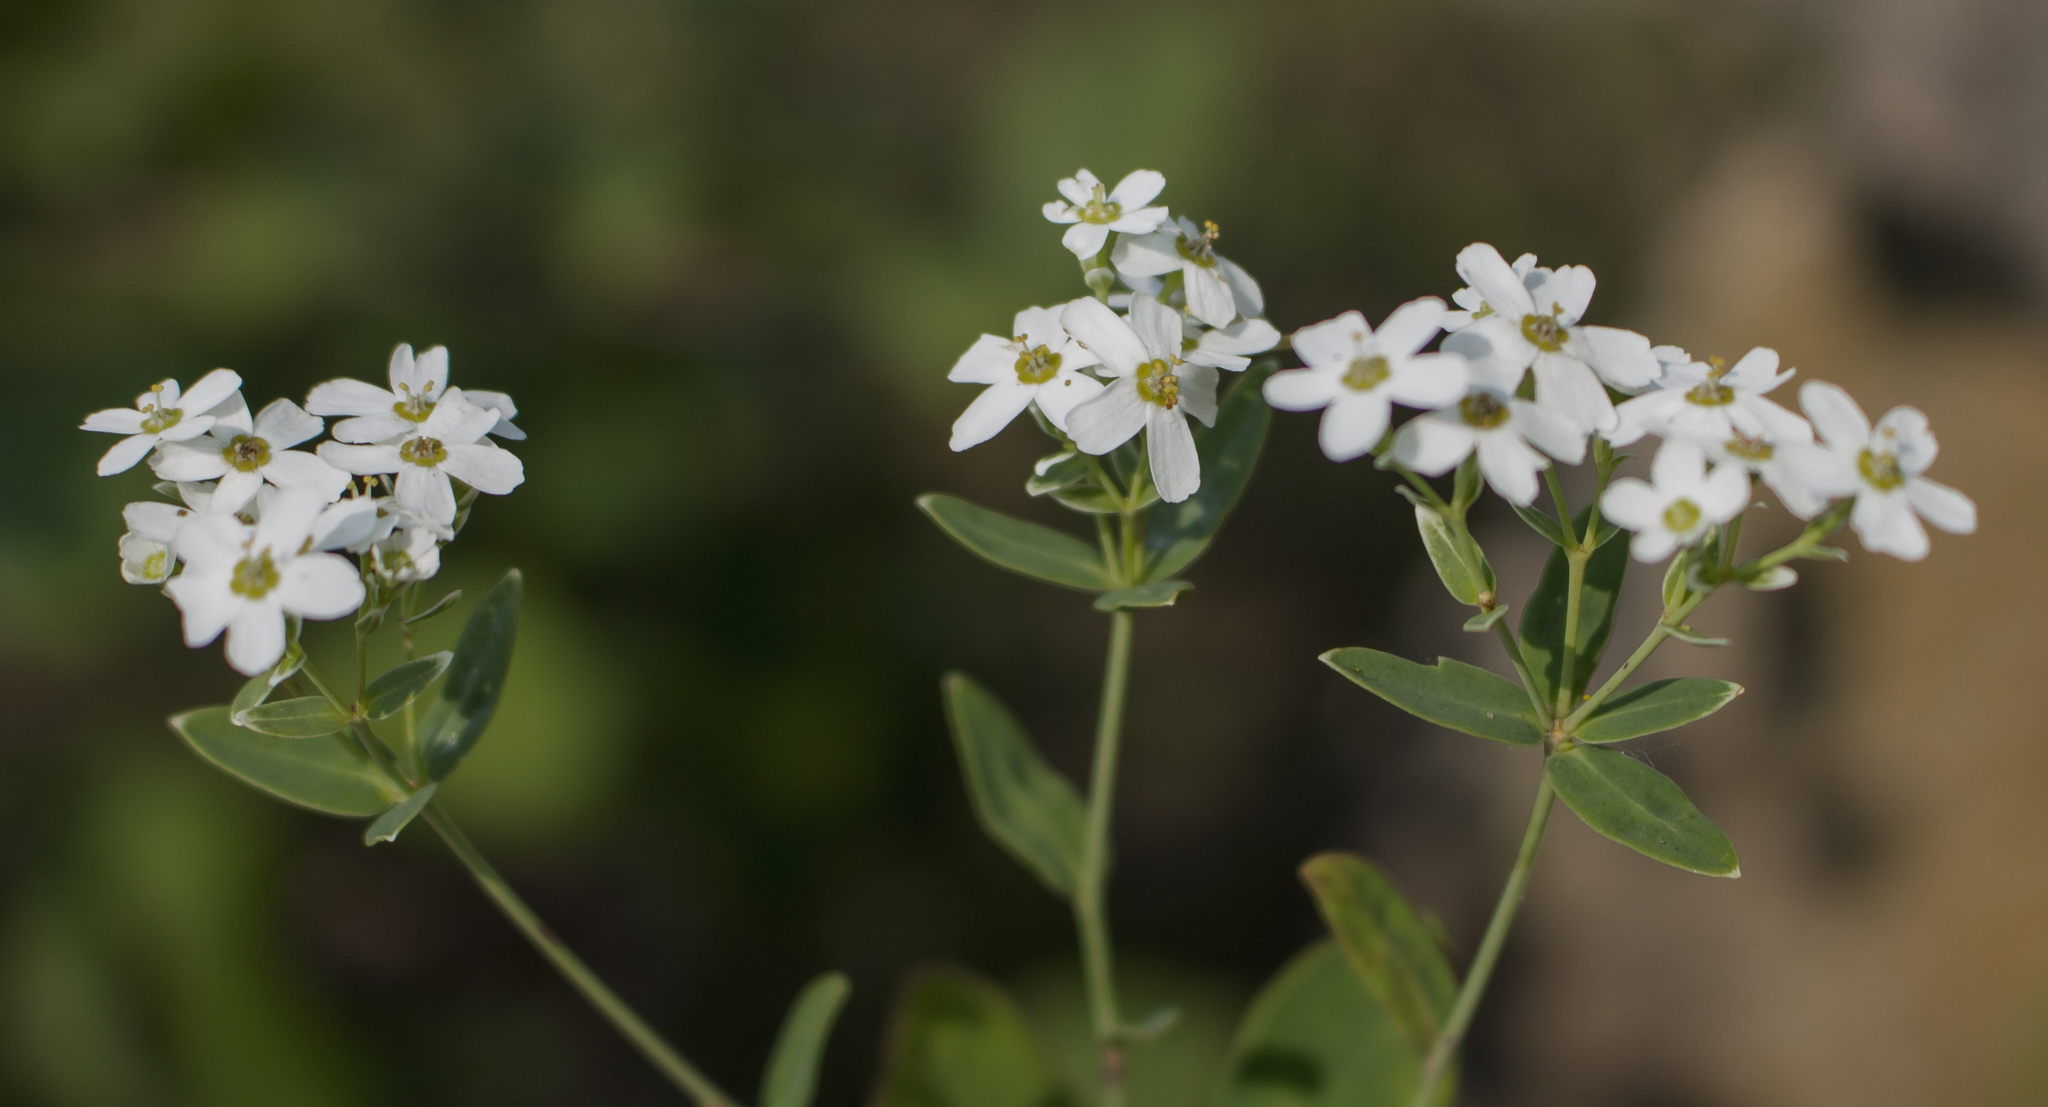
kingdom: Plantae
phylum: Tracheophyta
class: Magnoliopsida
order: Malpighiales
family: Euphorbiaceae
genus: Euphorbia
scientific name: Euphorbia corollata
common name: Flowering spurge
